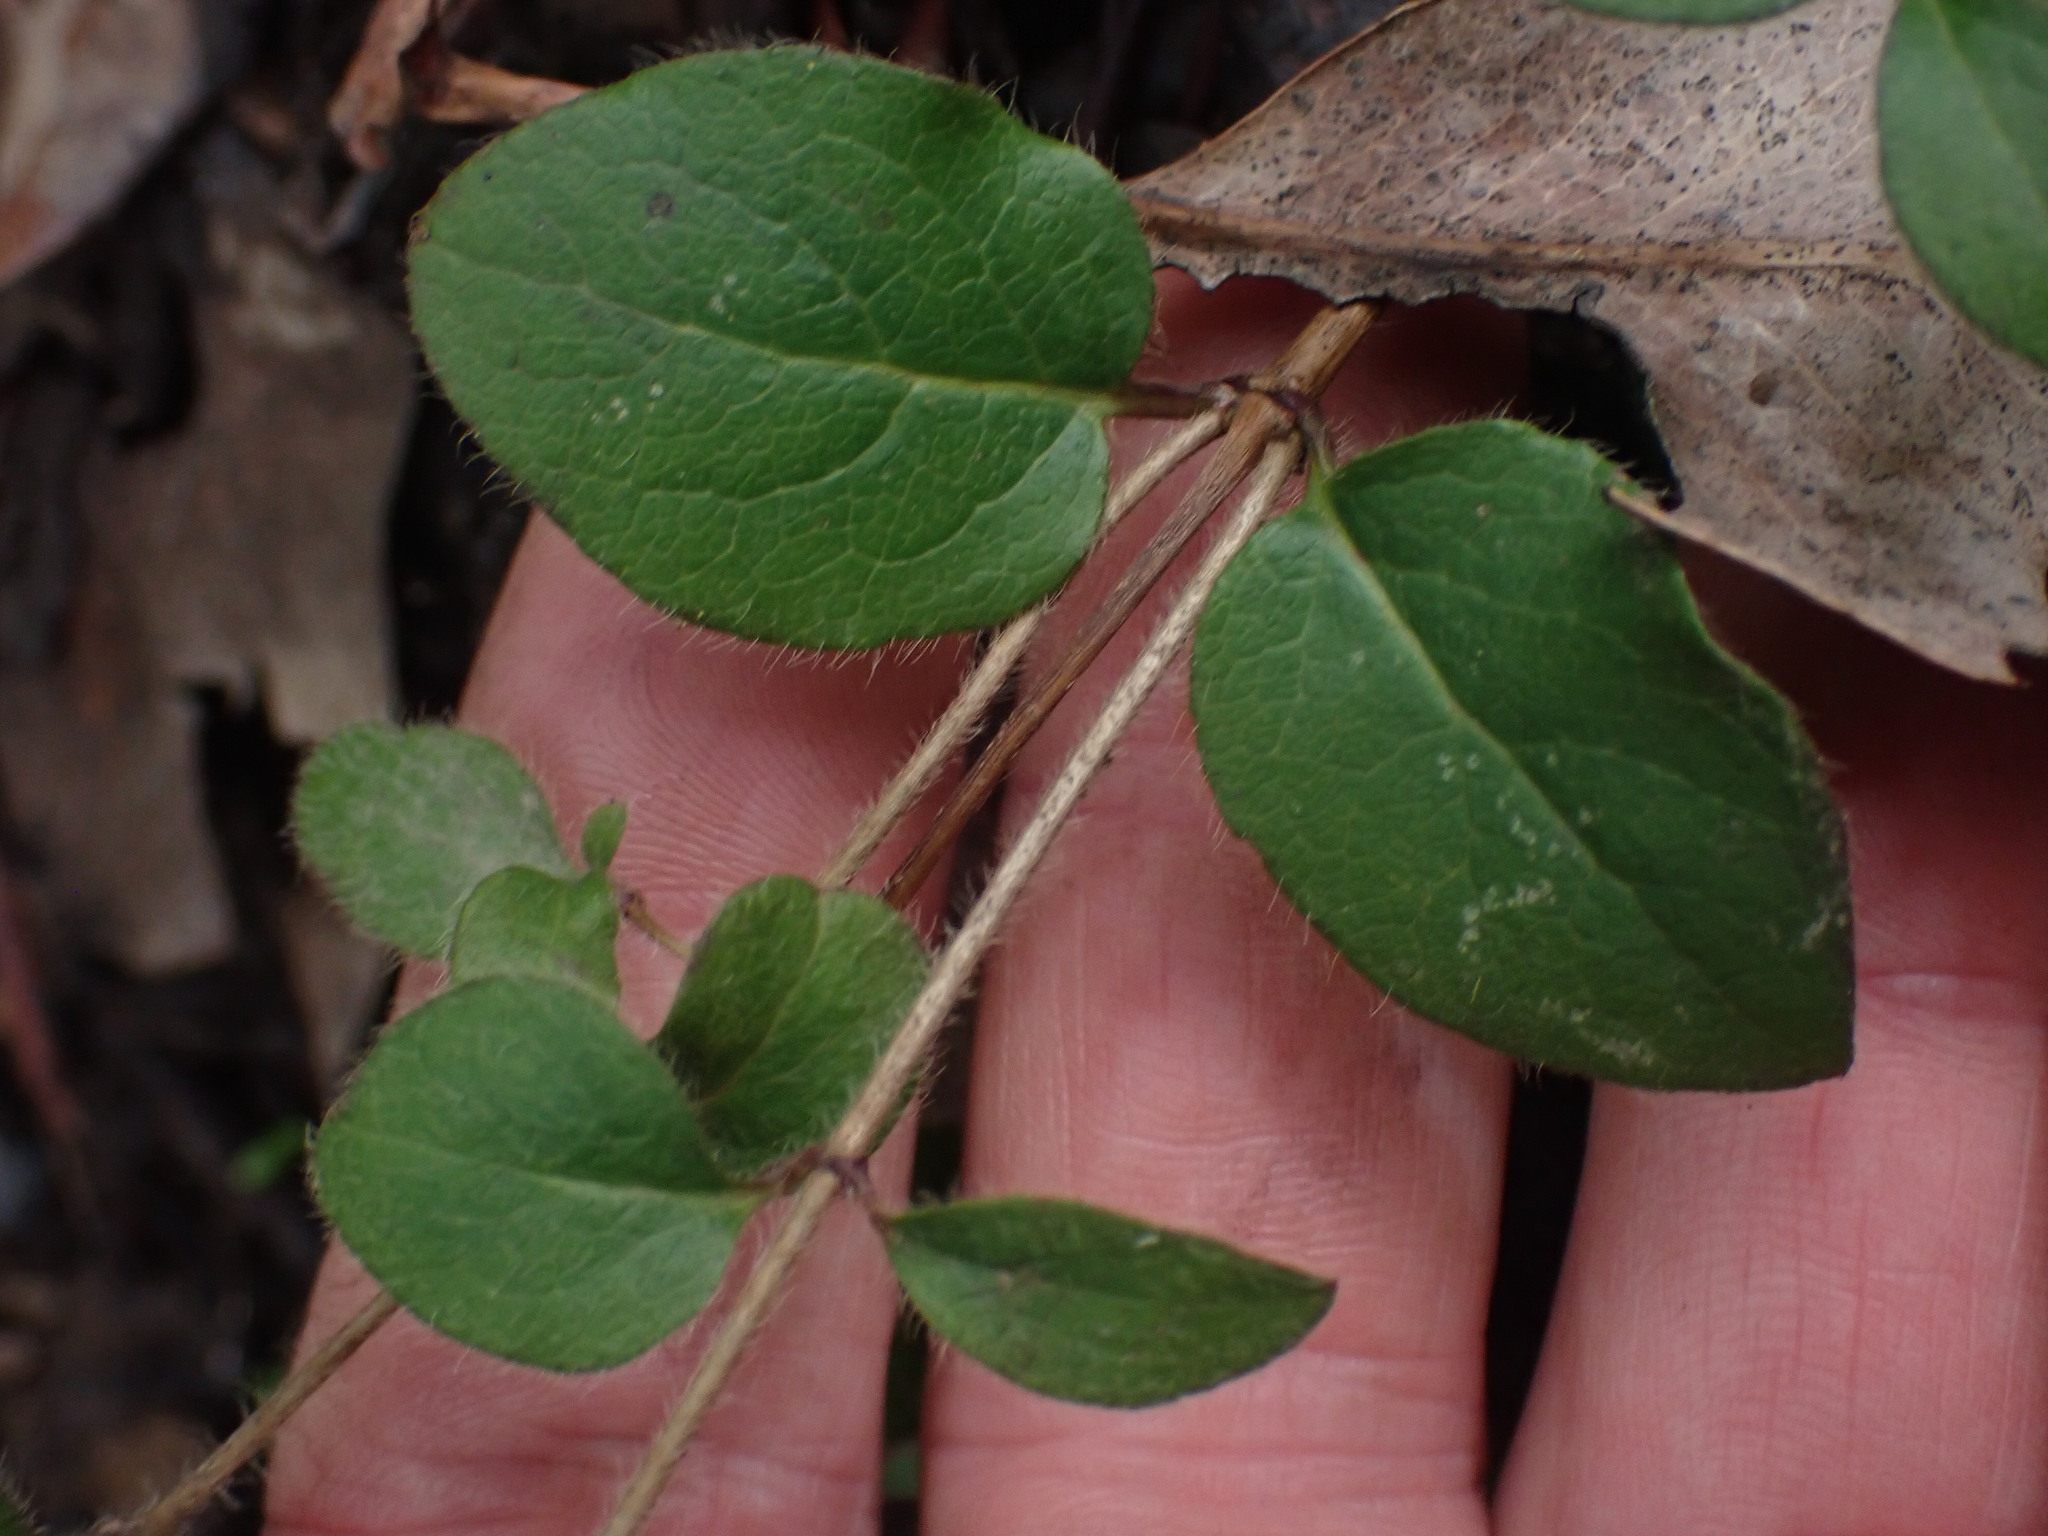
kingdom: Plantae
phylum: Tracheophyta
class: Magnoliopsida
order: Dipsacales
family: Caprifoliaceae
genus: Lonicera
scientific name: Lonicera hispidula
